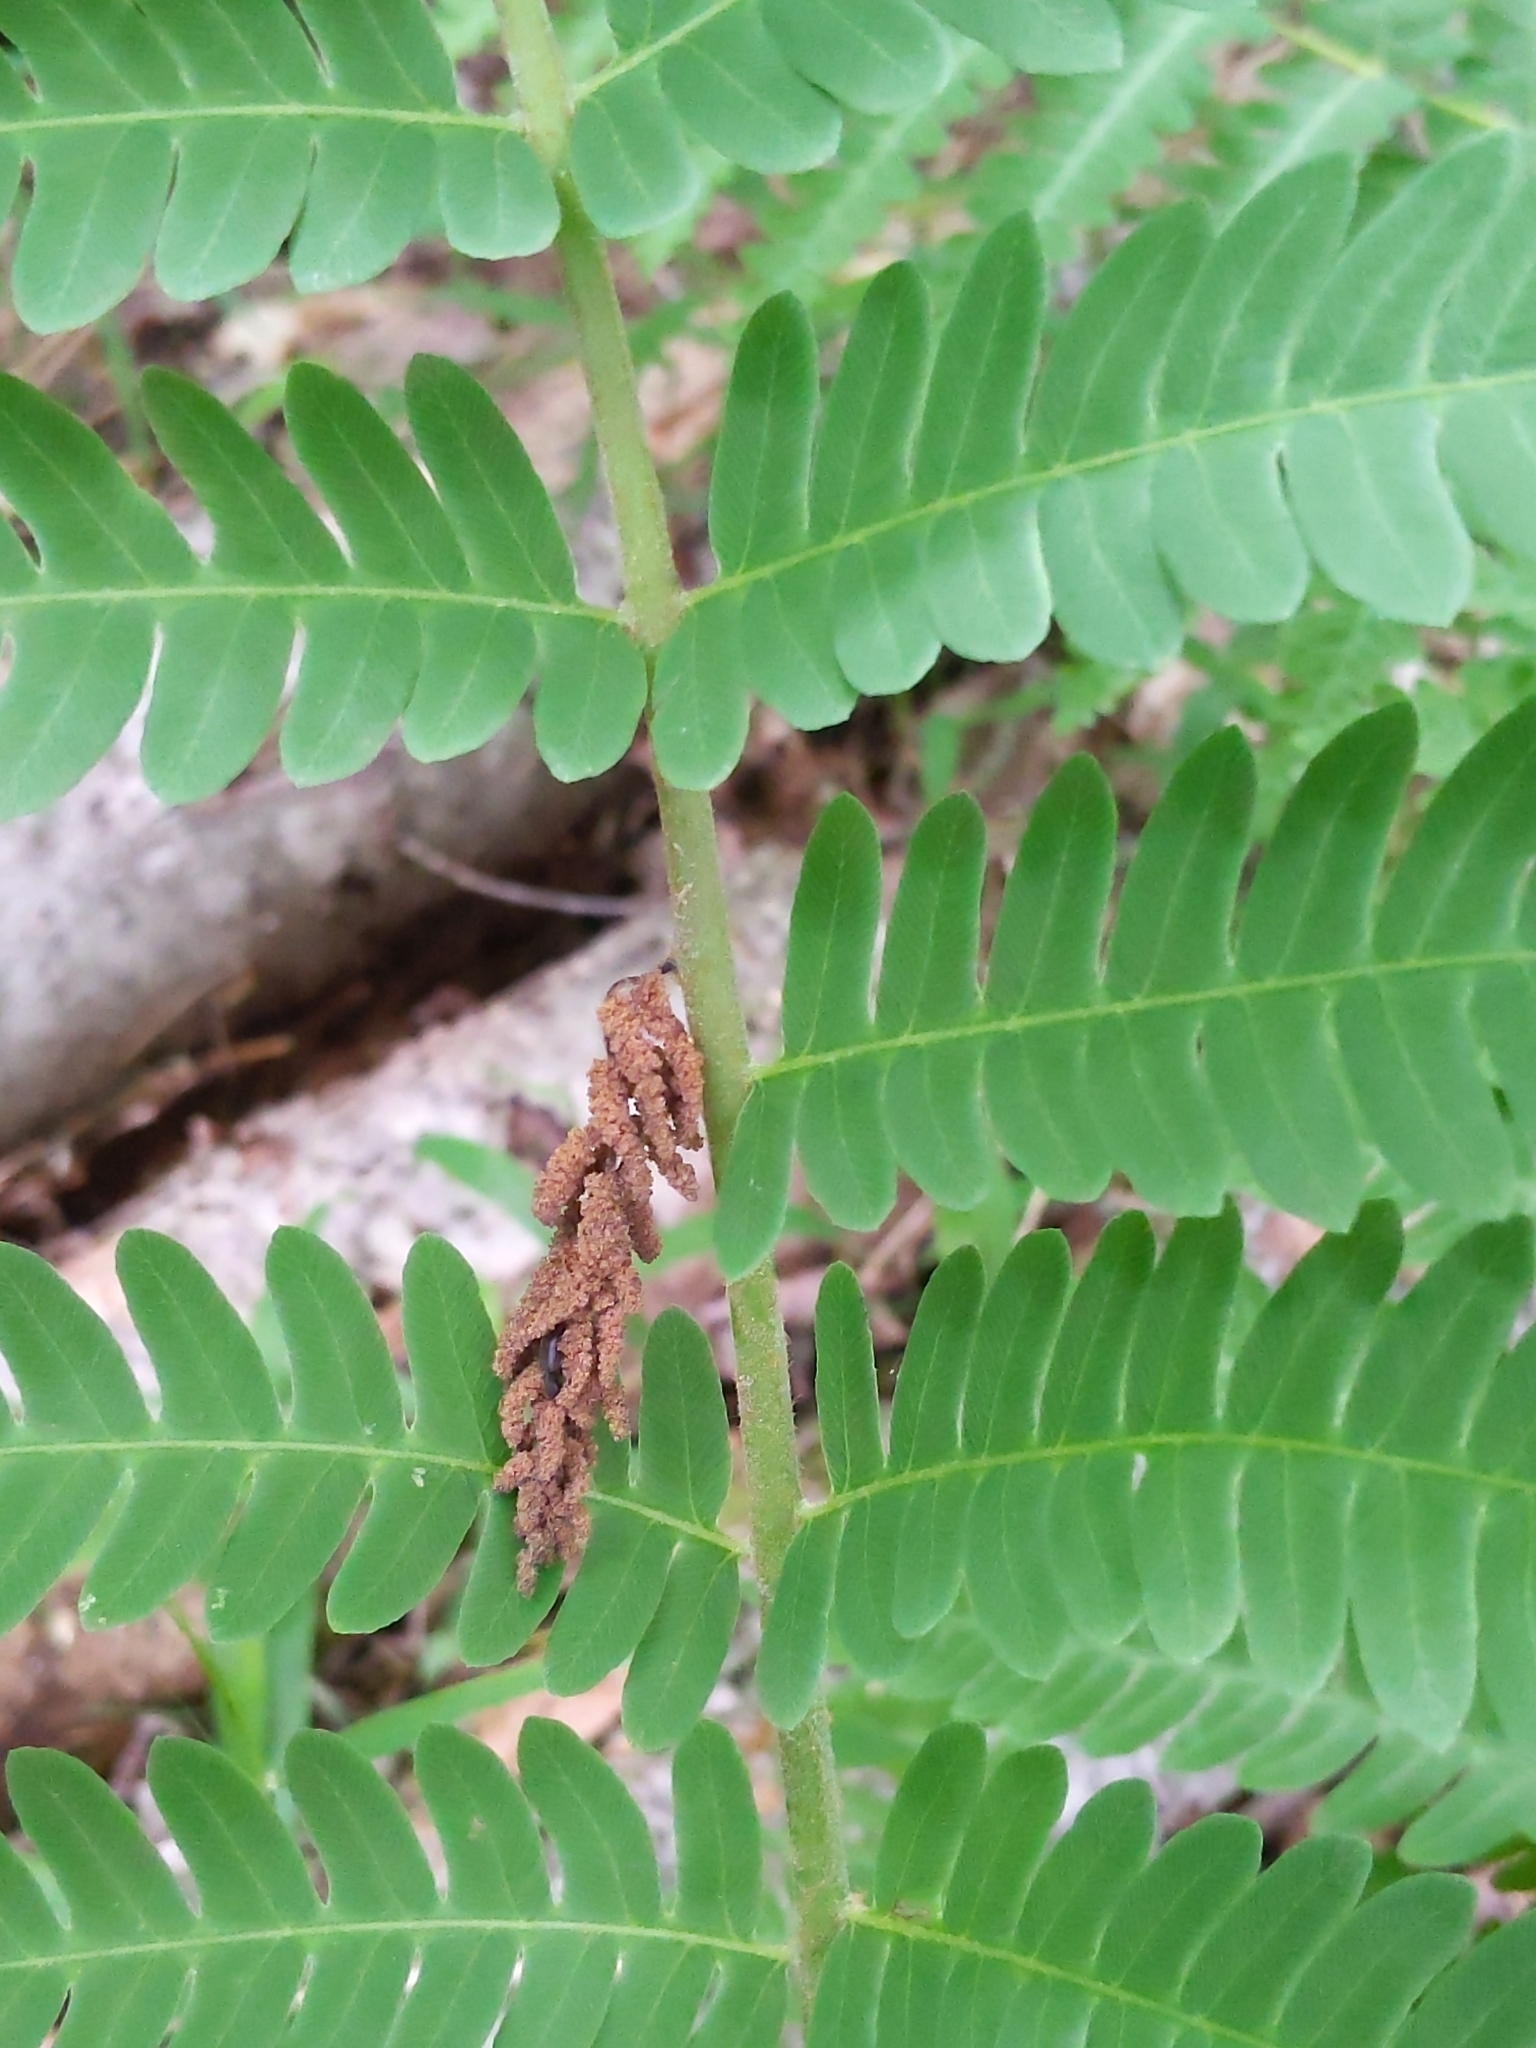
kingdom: Plantae
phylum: Tracheophyta
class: Polypodiopsida
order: Osmundales
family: Osmundaceae
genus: Claytosmunda
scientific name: Claytosmunda claytoniana
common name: Clayton's fern
